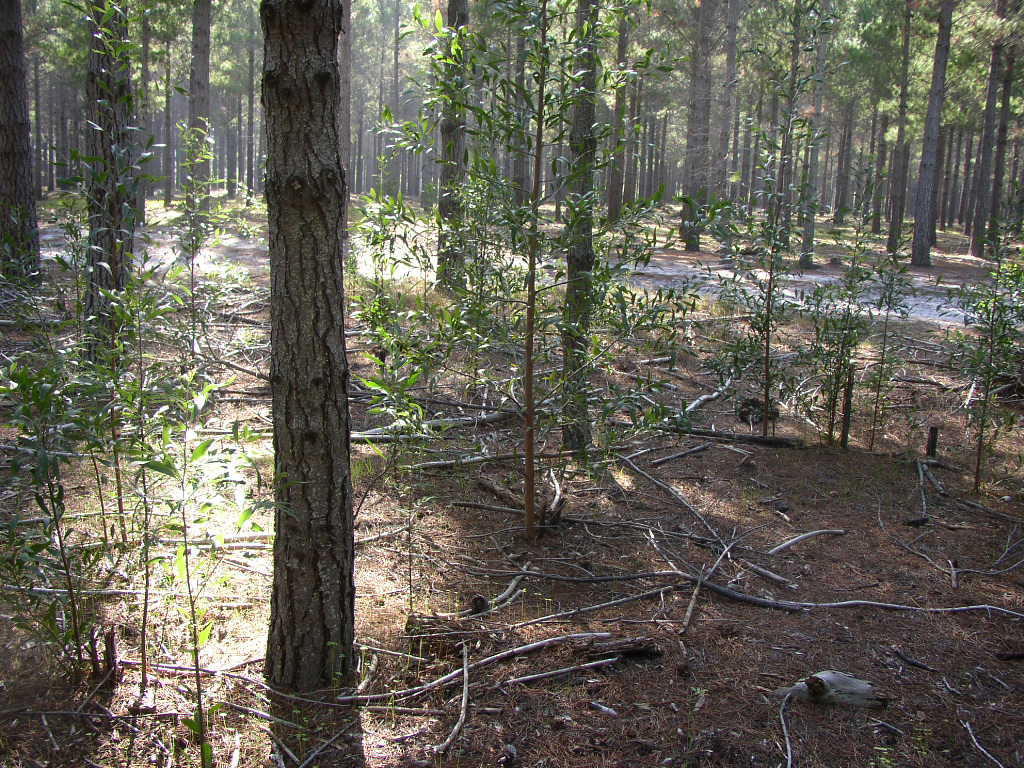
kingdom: Plantae
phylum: Tracheophyta
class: Magnoliopsida
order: Fabales
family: Fabaceae
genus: Acacia
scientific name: Acacia melanoxylon
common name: Blackwood
